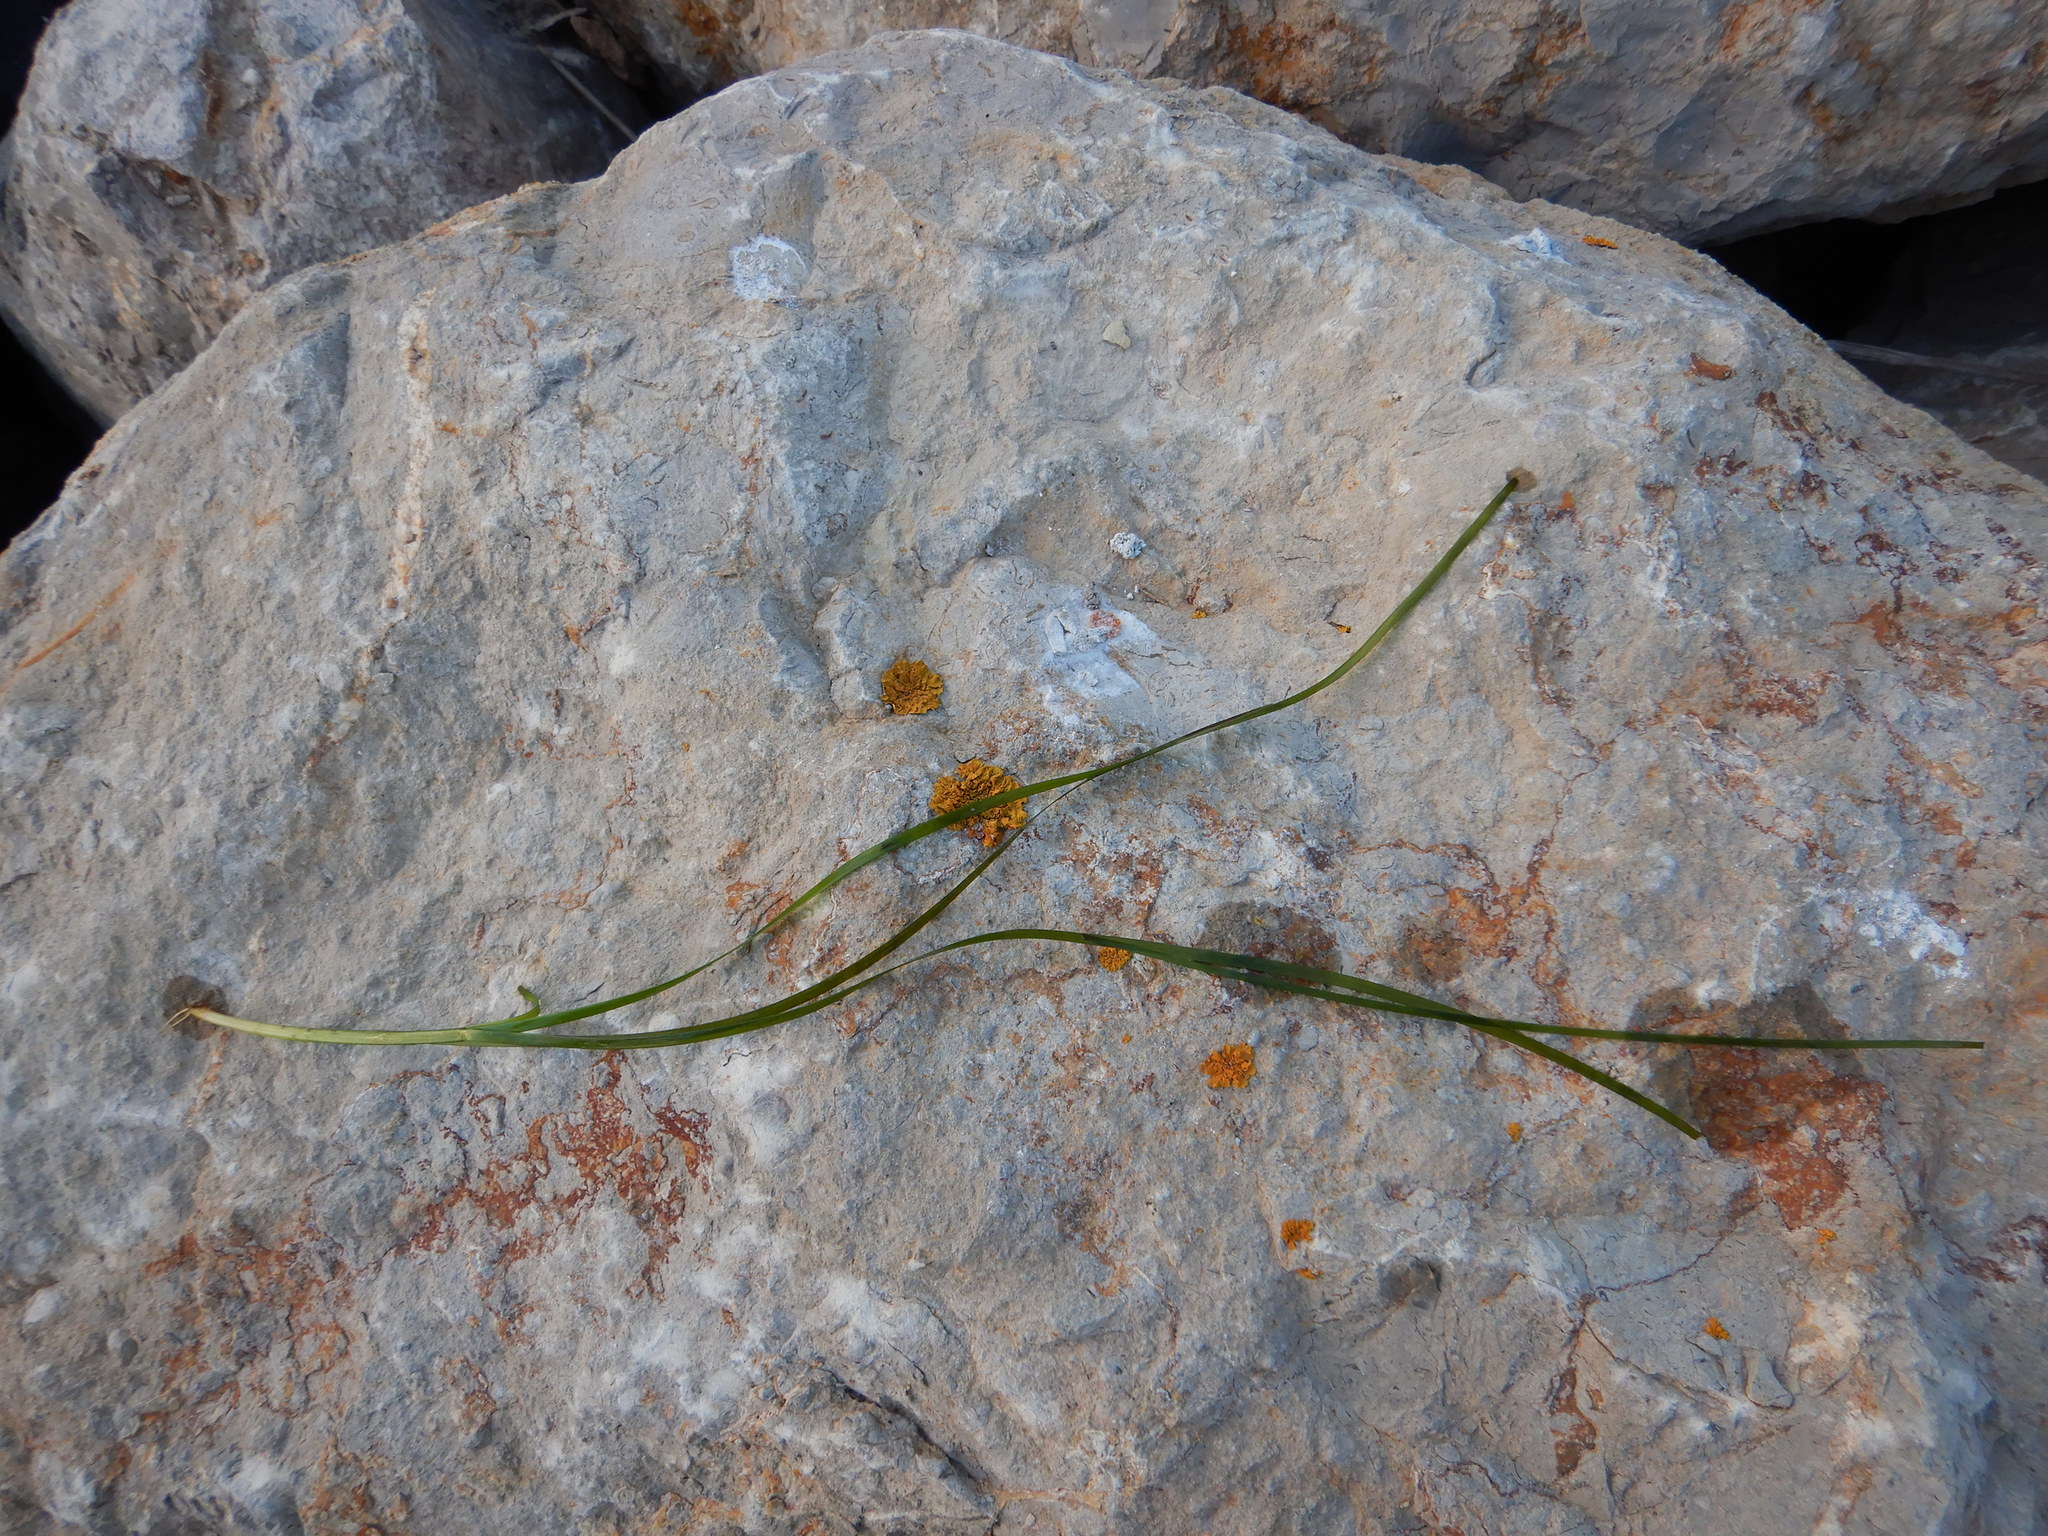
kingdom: Plantae
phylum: Tracheophyta
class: Liliopsida
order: Alismatales
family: Zosteraceae
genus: Zostera
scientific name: Zostera noltii
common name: Dwarf eelgrass
